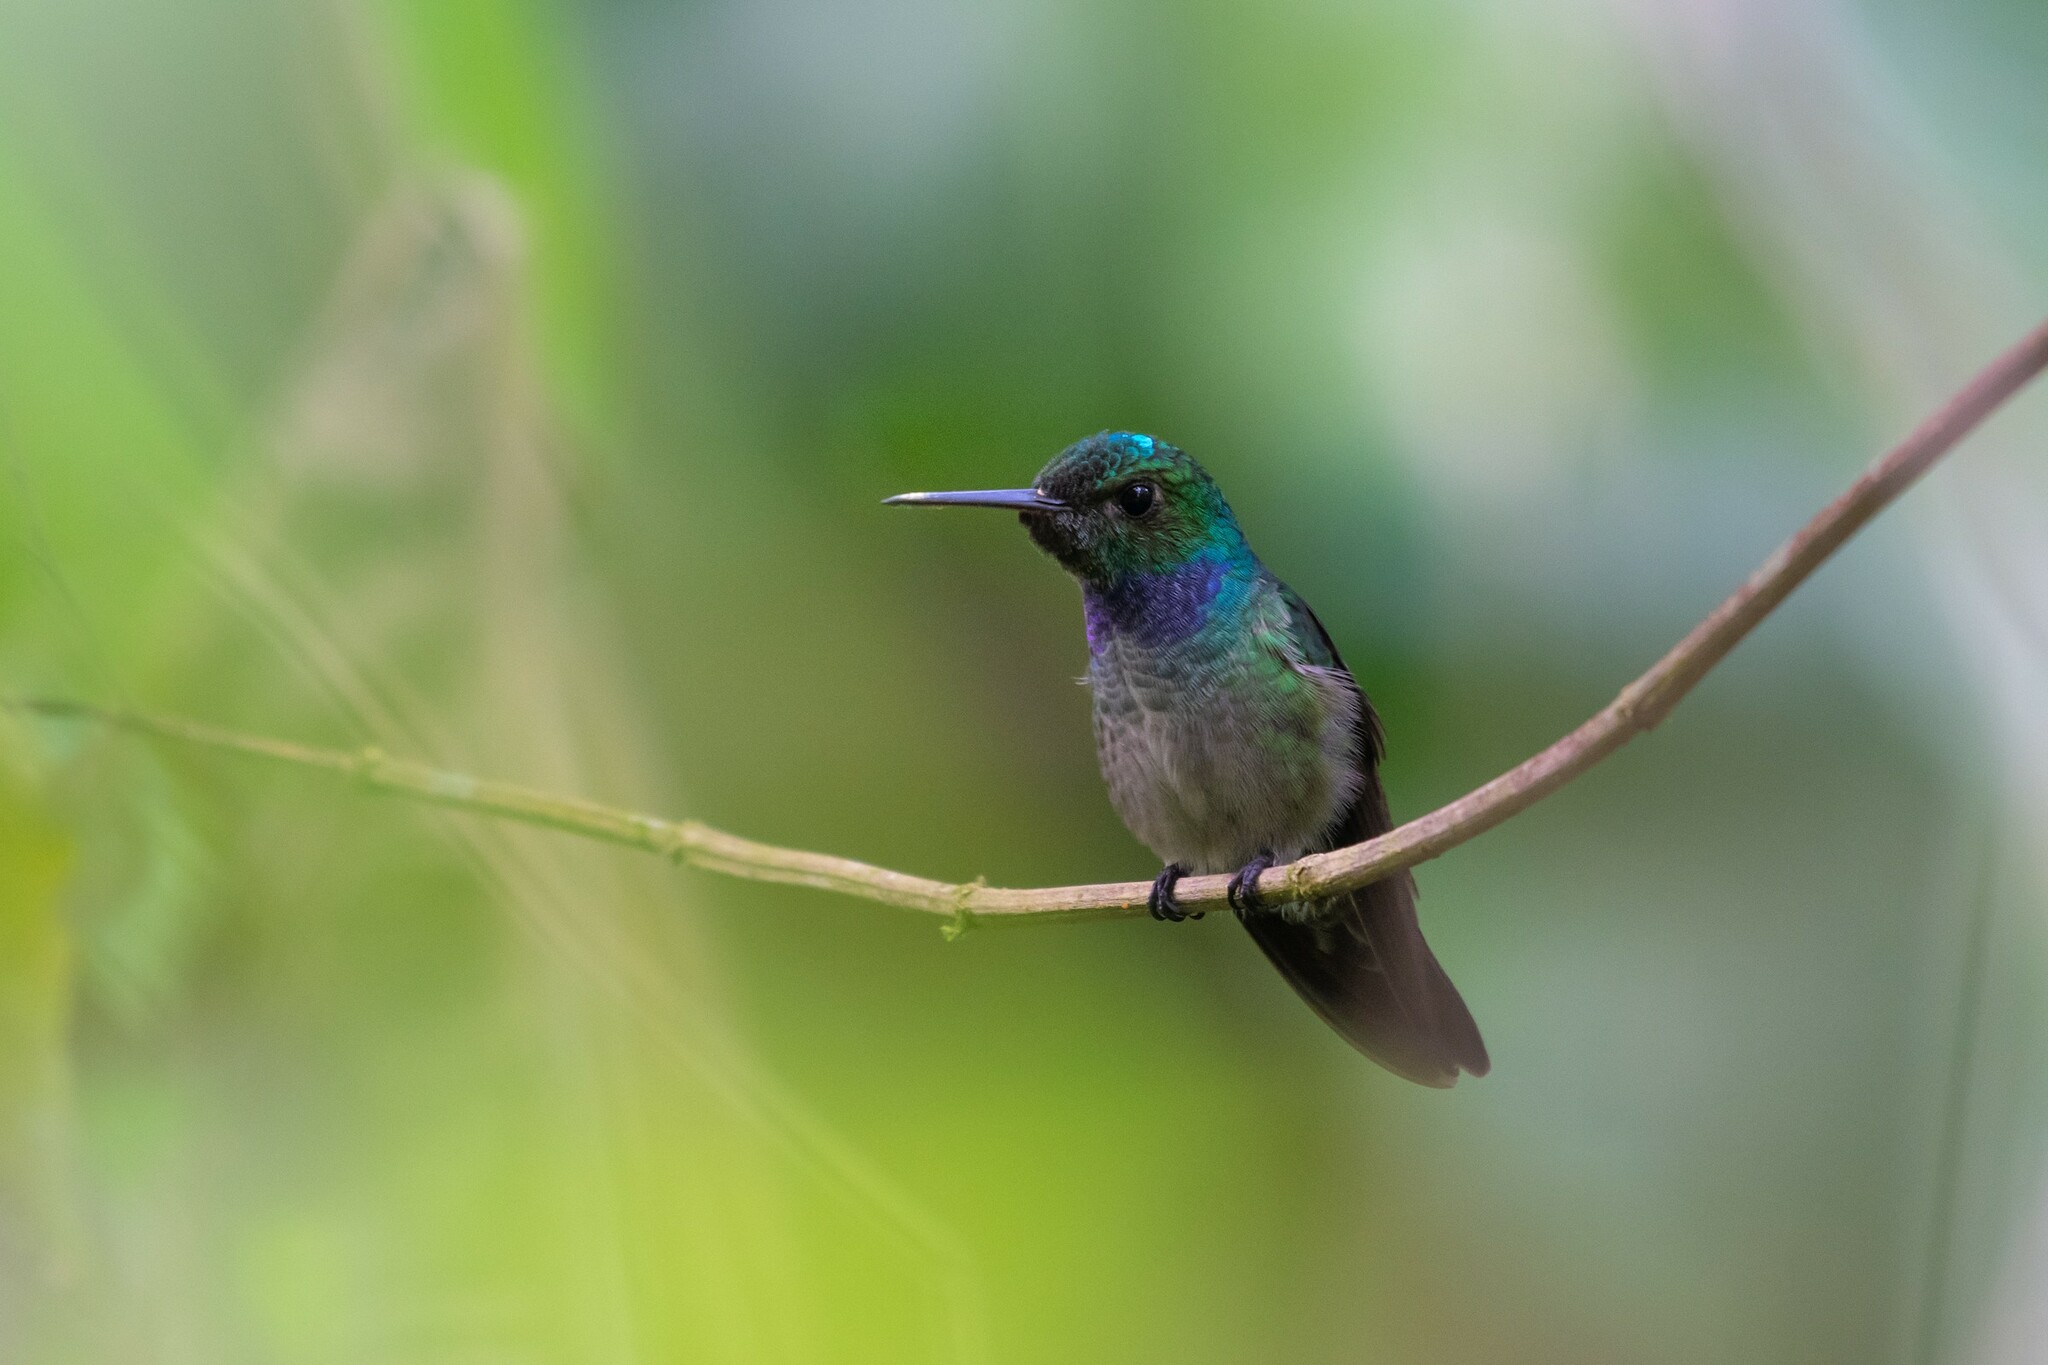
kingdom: Animalia
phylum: Chordata
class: Aves
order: Apodiformes
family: Trochilidae
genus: Polyerata
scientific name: Polyerata amabilis
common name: Blue-chested hummingbird
